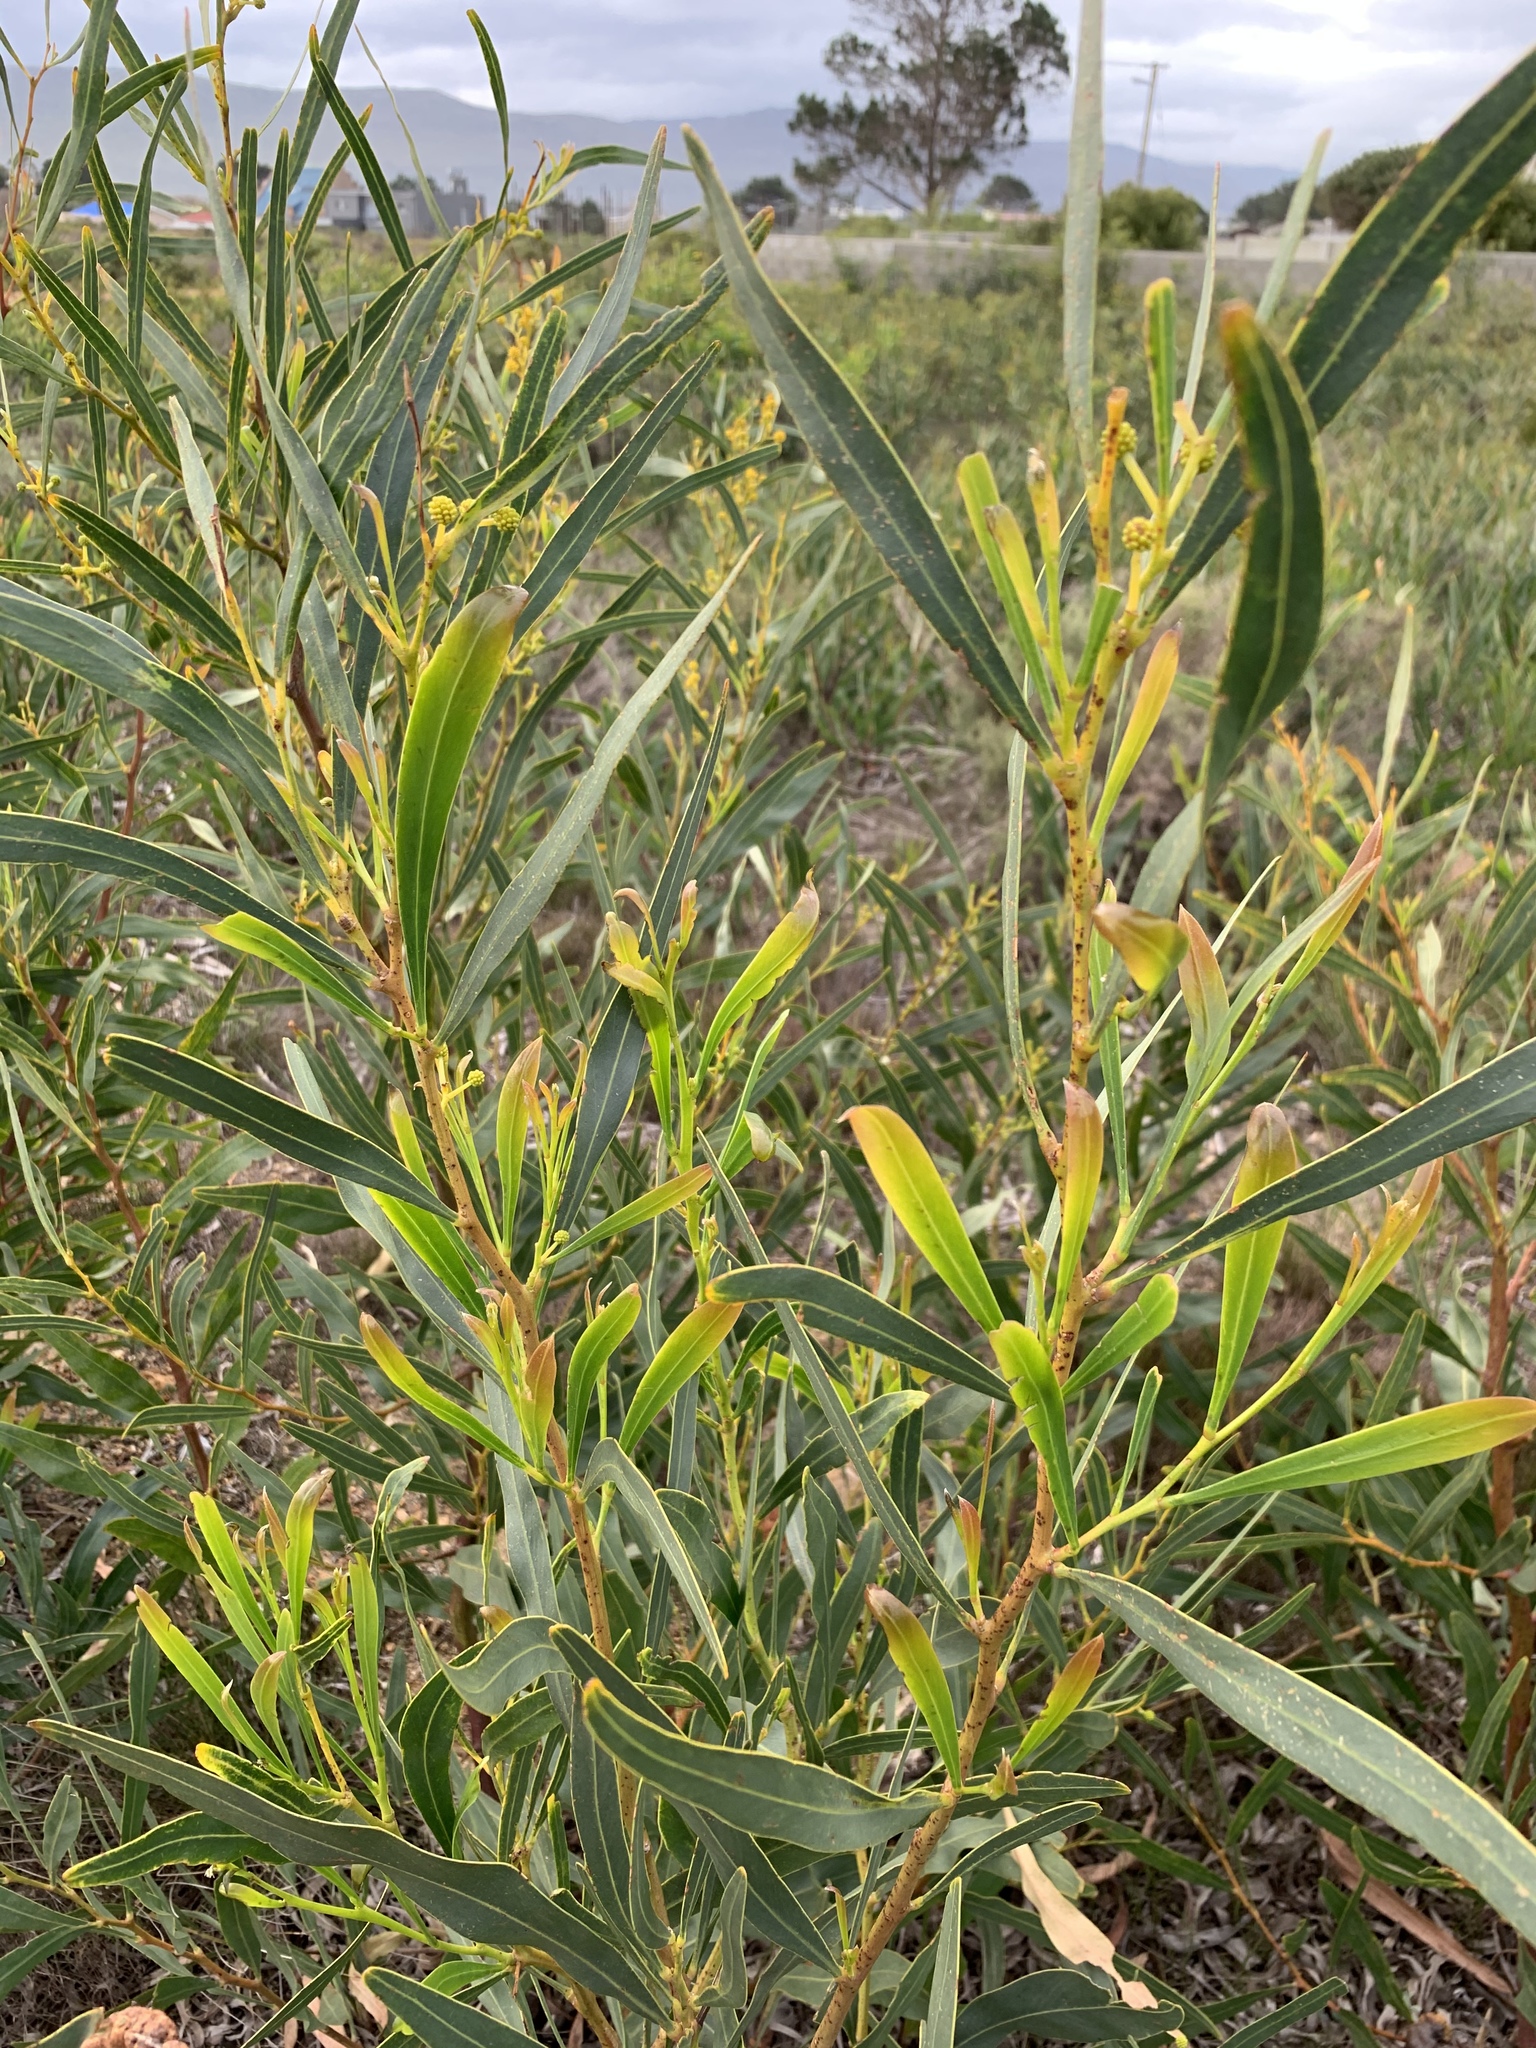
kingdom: Plantae
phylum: Tracheophyta
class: Magnoliopsida
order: Fabales
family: Fabaceae
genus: Acacia
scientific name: Acacia saligna
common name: Orange wattle
